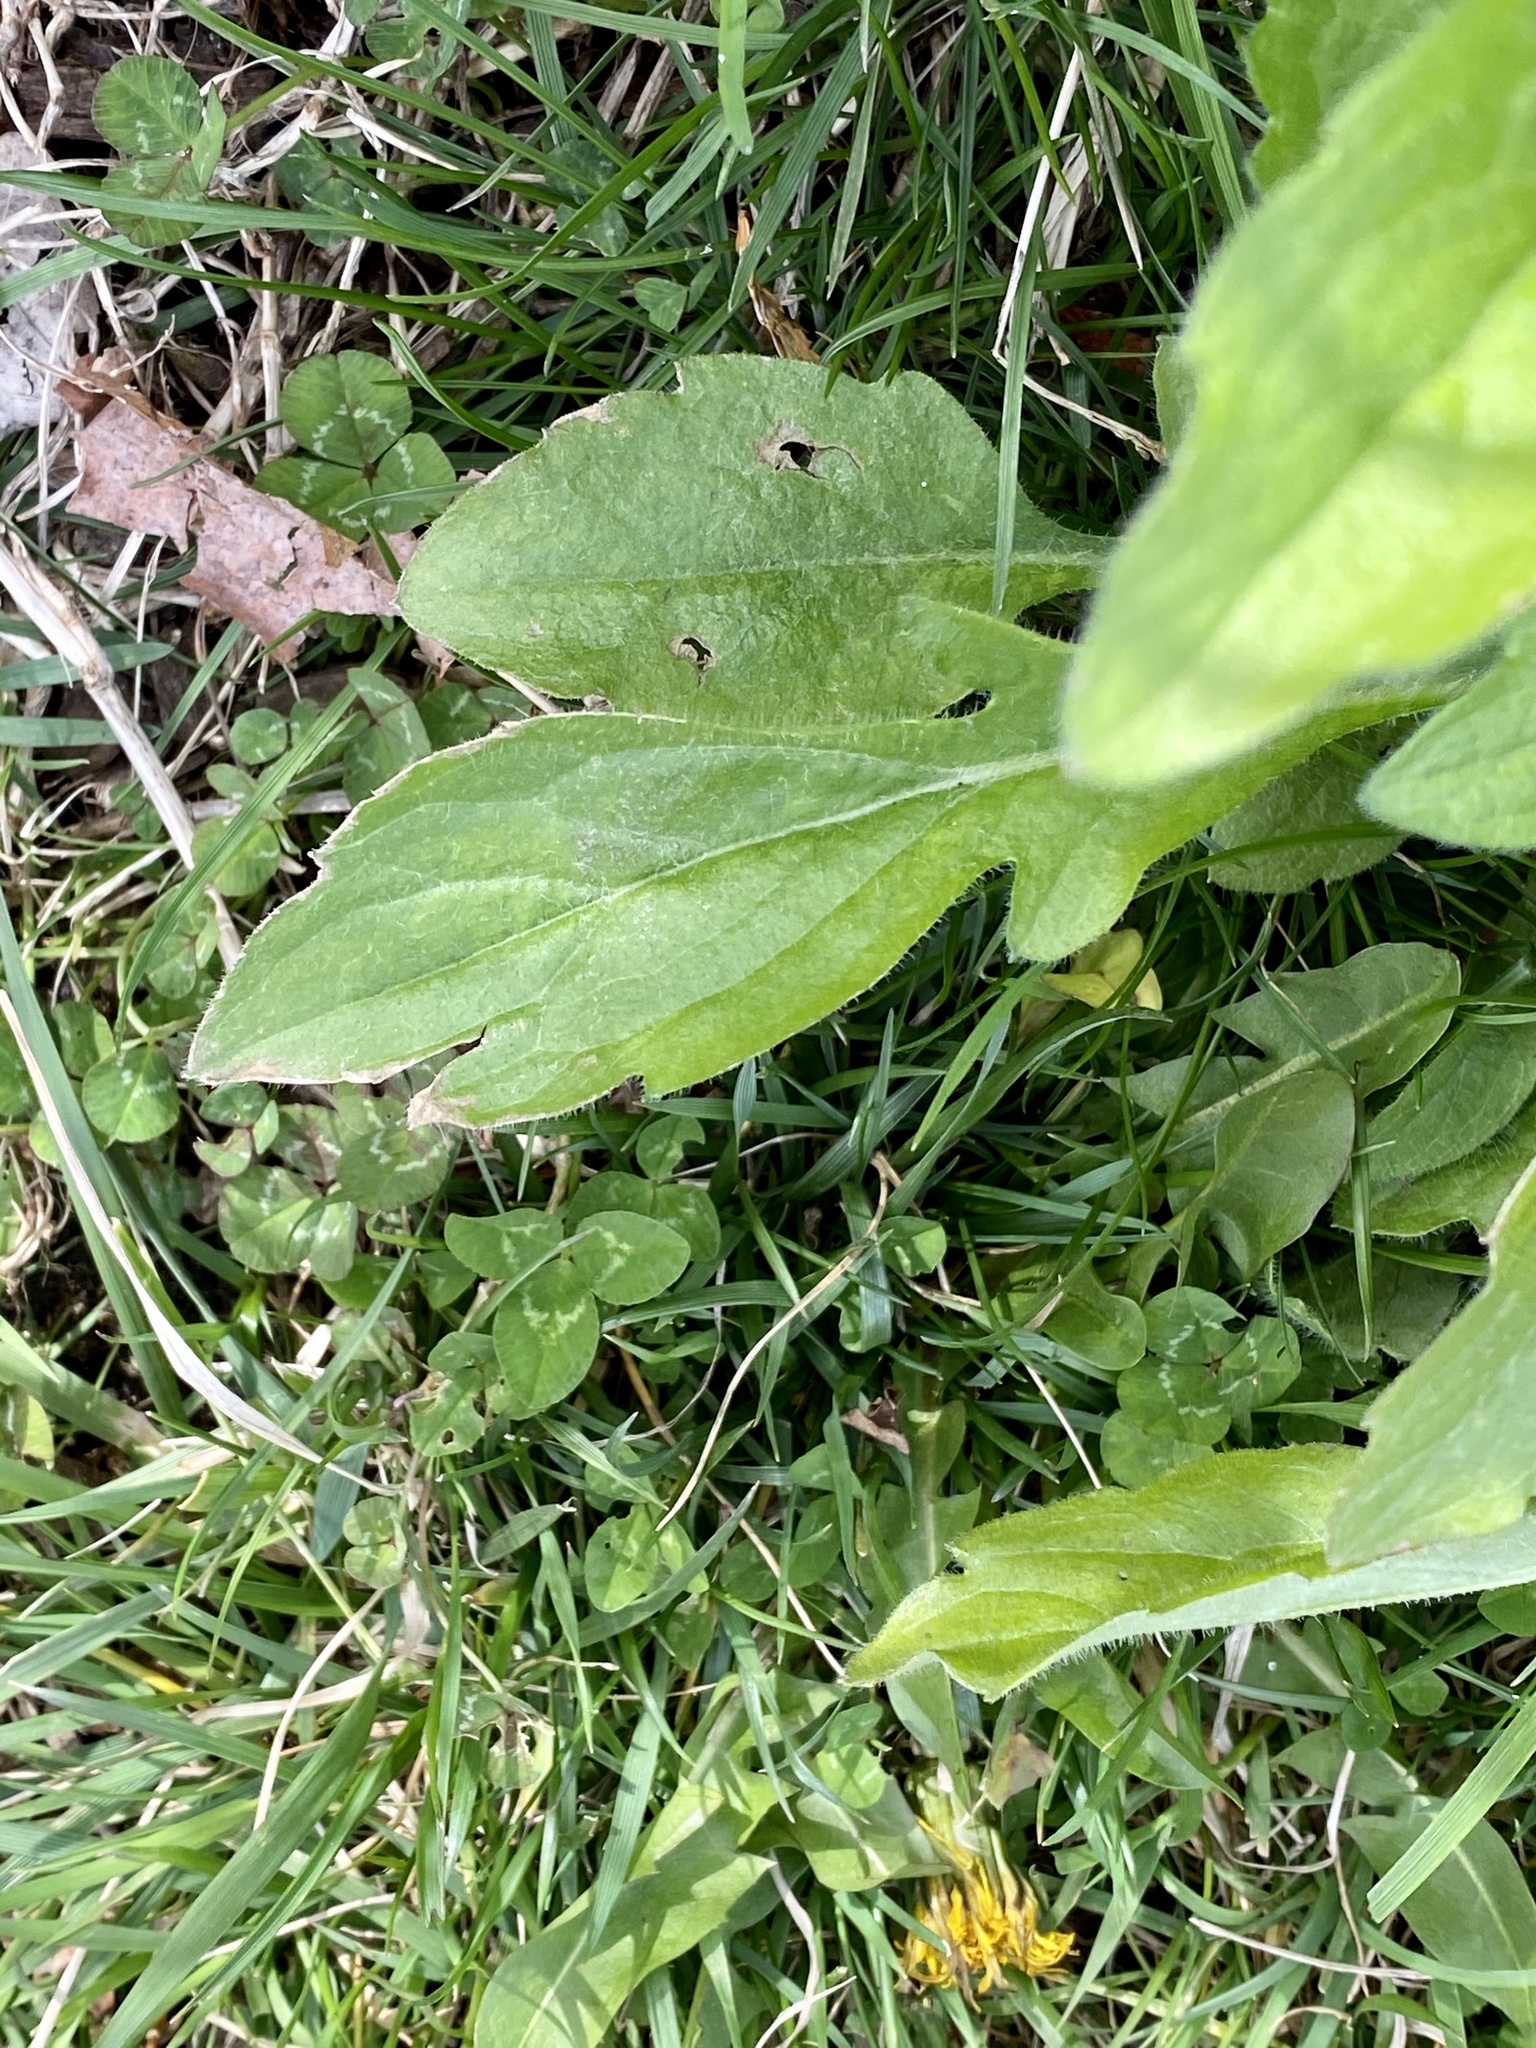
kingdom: Plantae
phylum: Tracheophyta
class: Magnoliopsida
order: Asterales
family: Asteraceae
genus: Erigeron
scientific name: Erigeron annuus
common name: Tall fleabane
